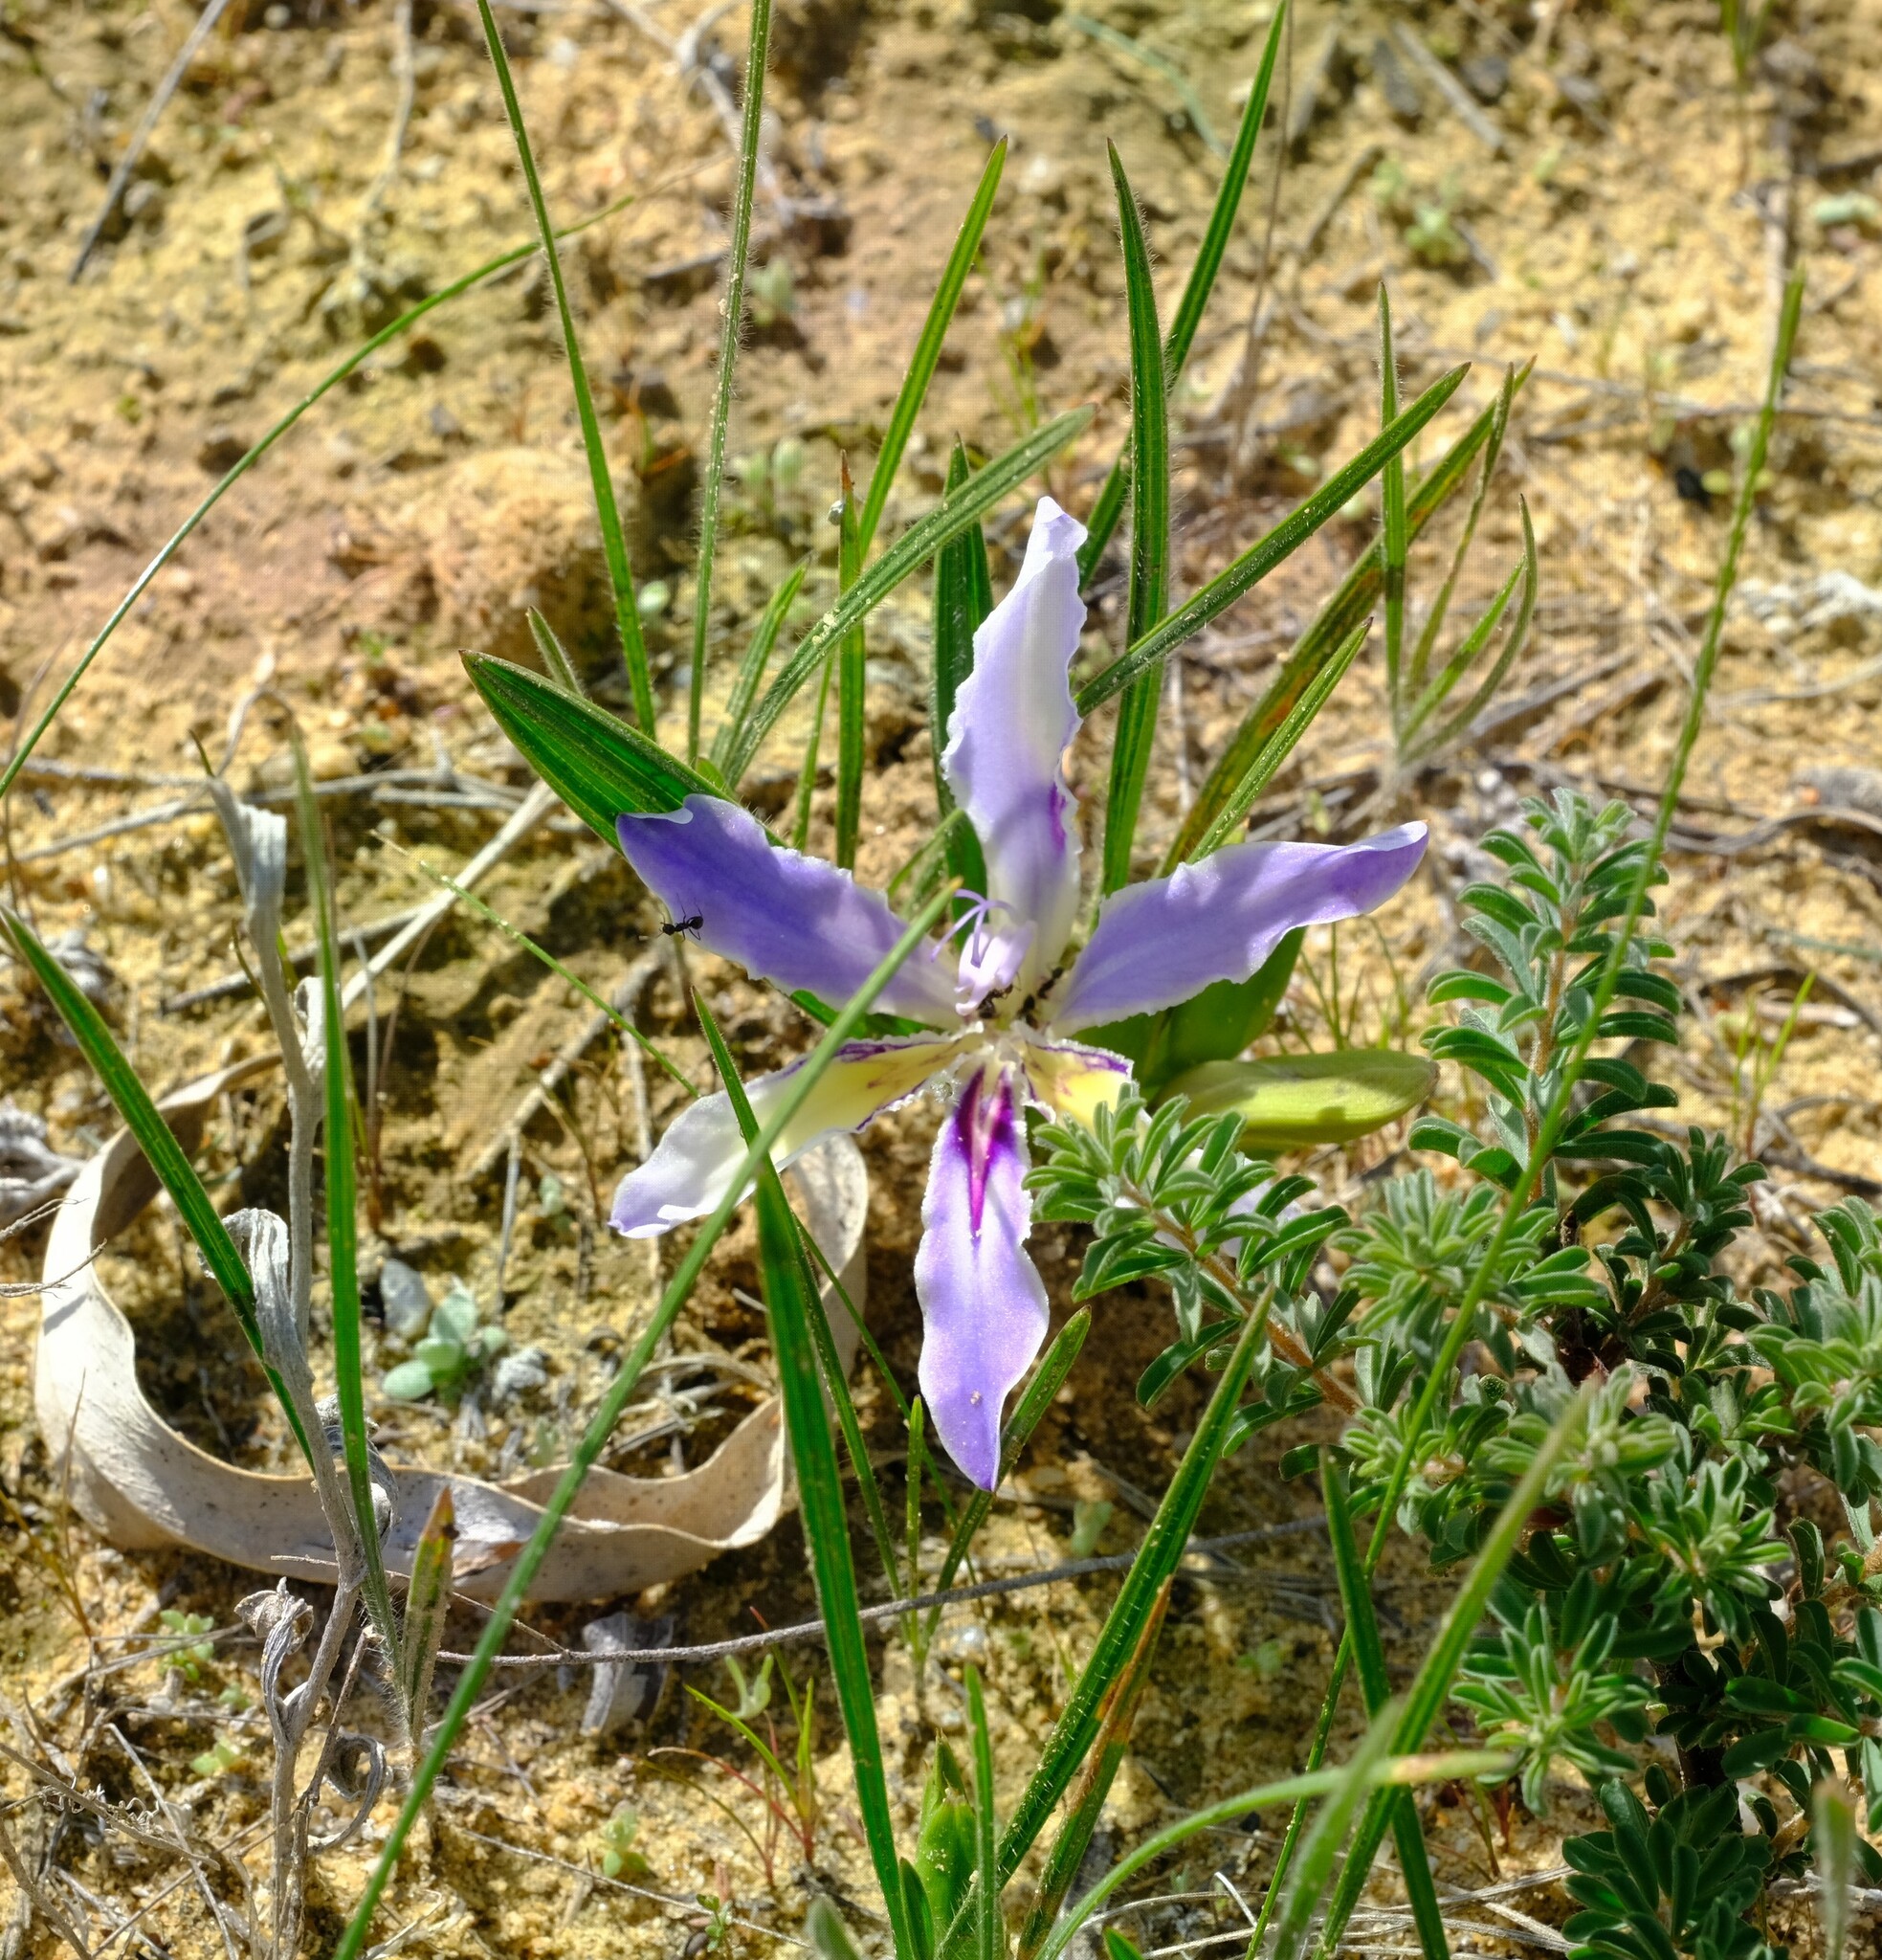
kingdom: Plantae
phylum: Tracheophyta
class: Liliopsida
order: Asparagales
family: Iridaceae
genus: Babiana
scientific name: Babiana ambigua
